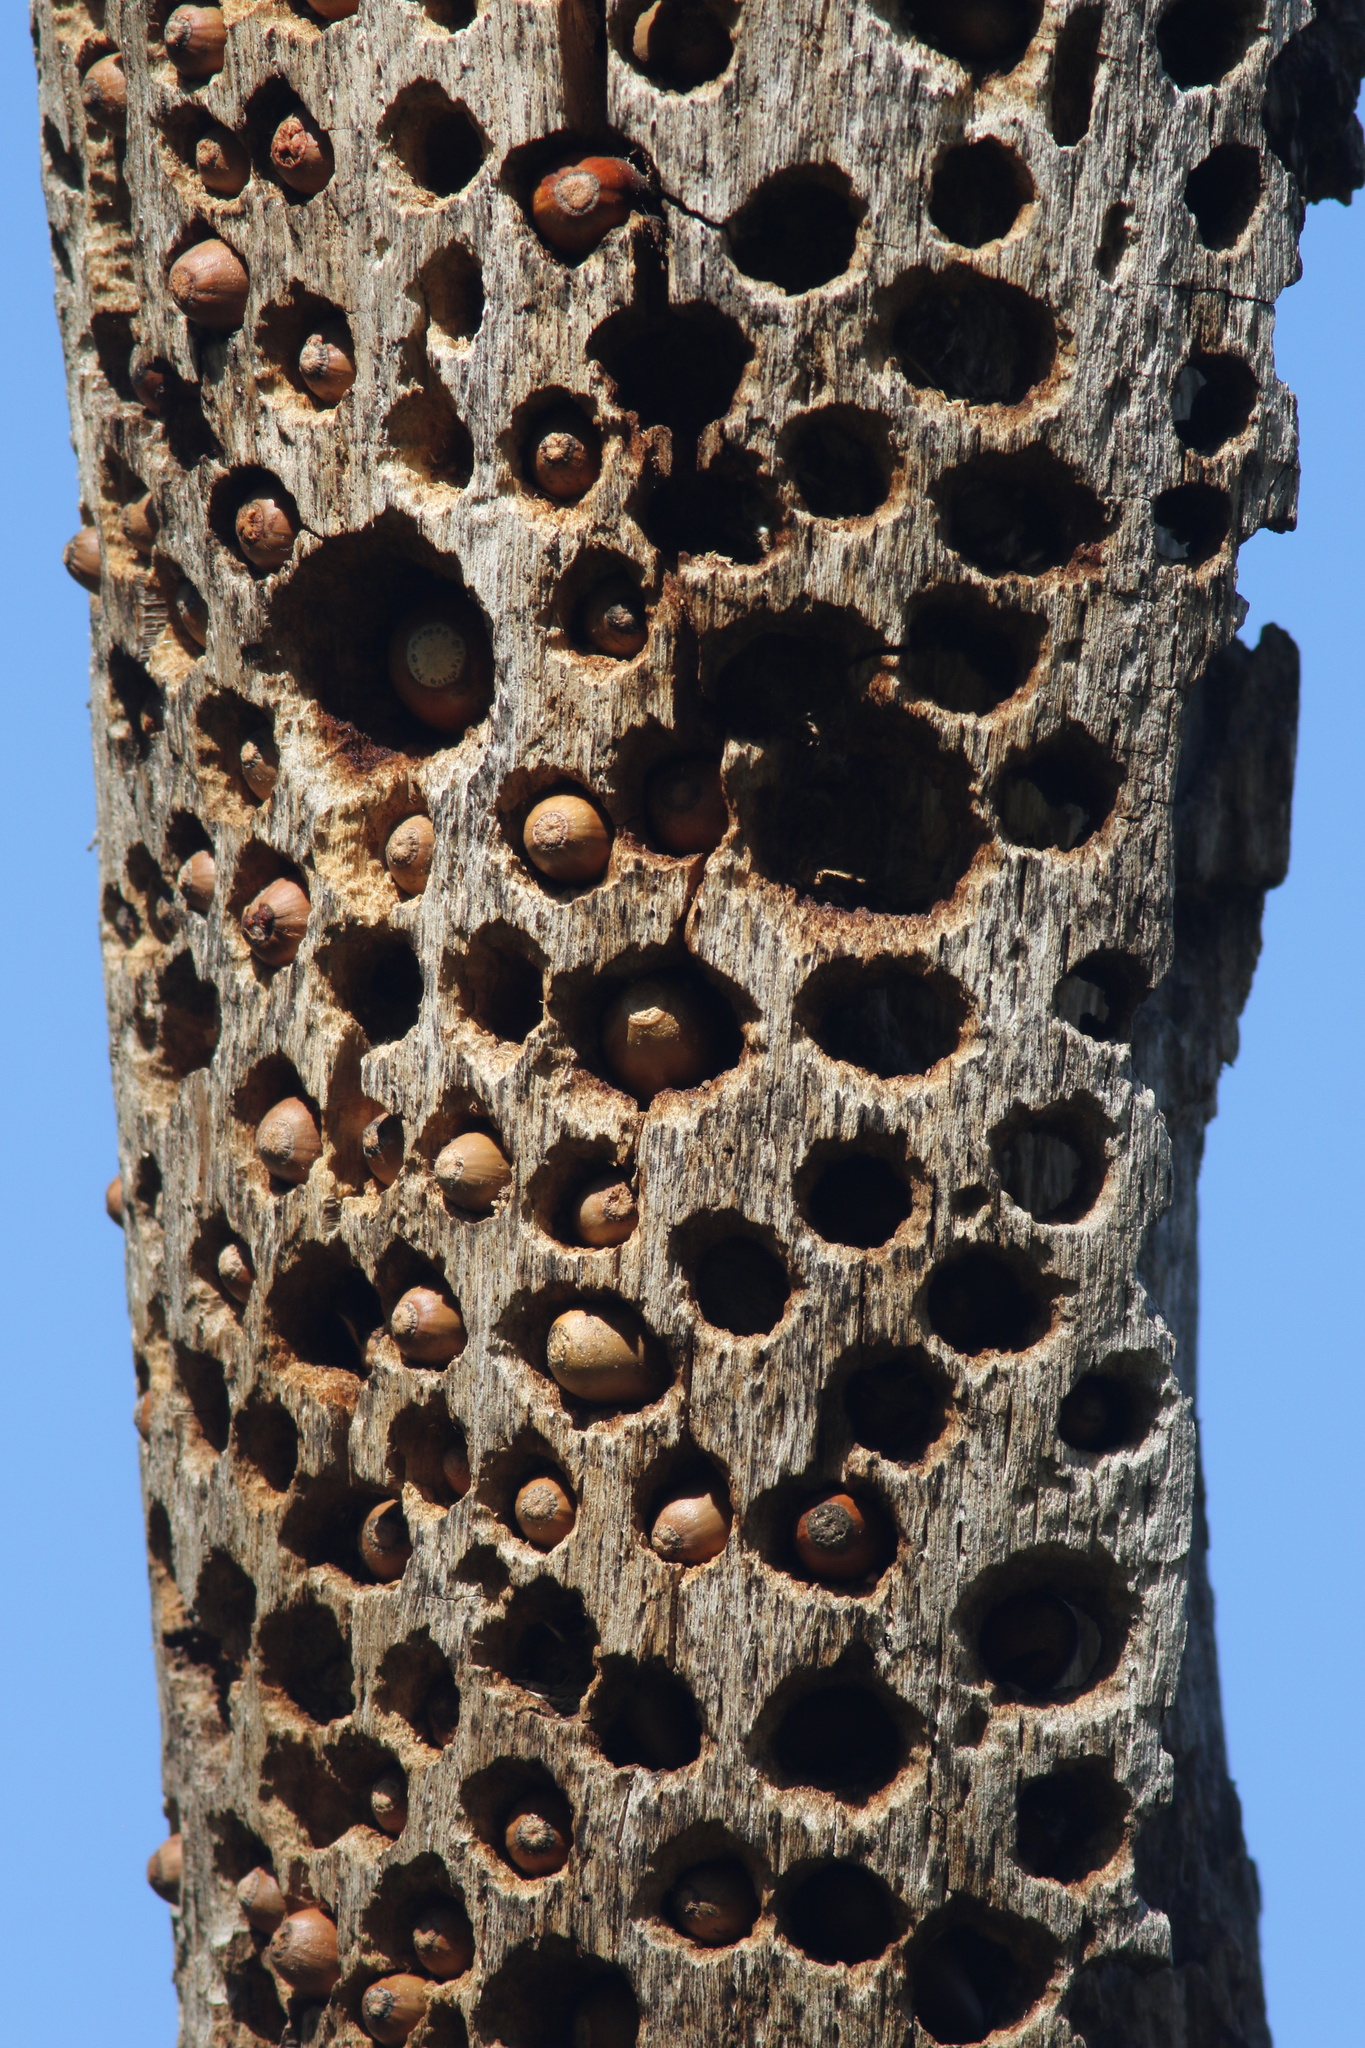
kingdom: Animalia
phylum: Chordata
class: Aves
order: Piciformes
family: Picidae
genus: Melanerpes
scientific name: Melanerpes formicivorus
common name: Acorn woodpecker
